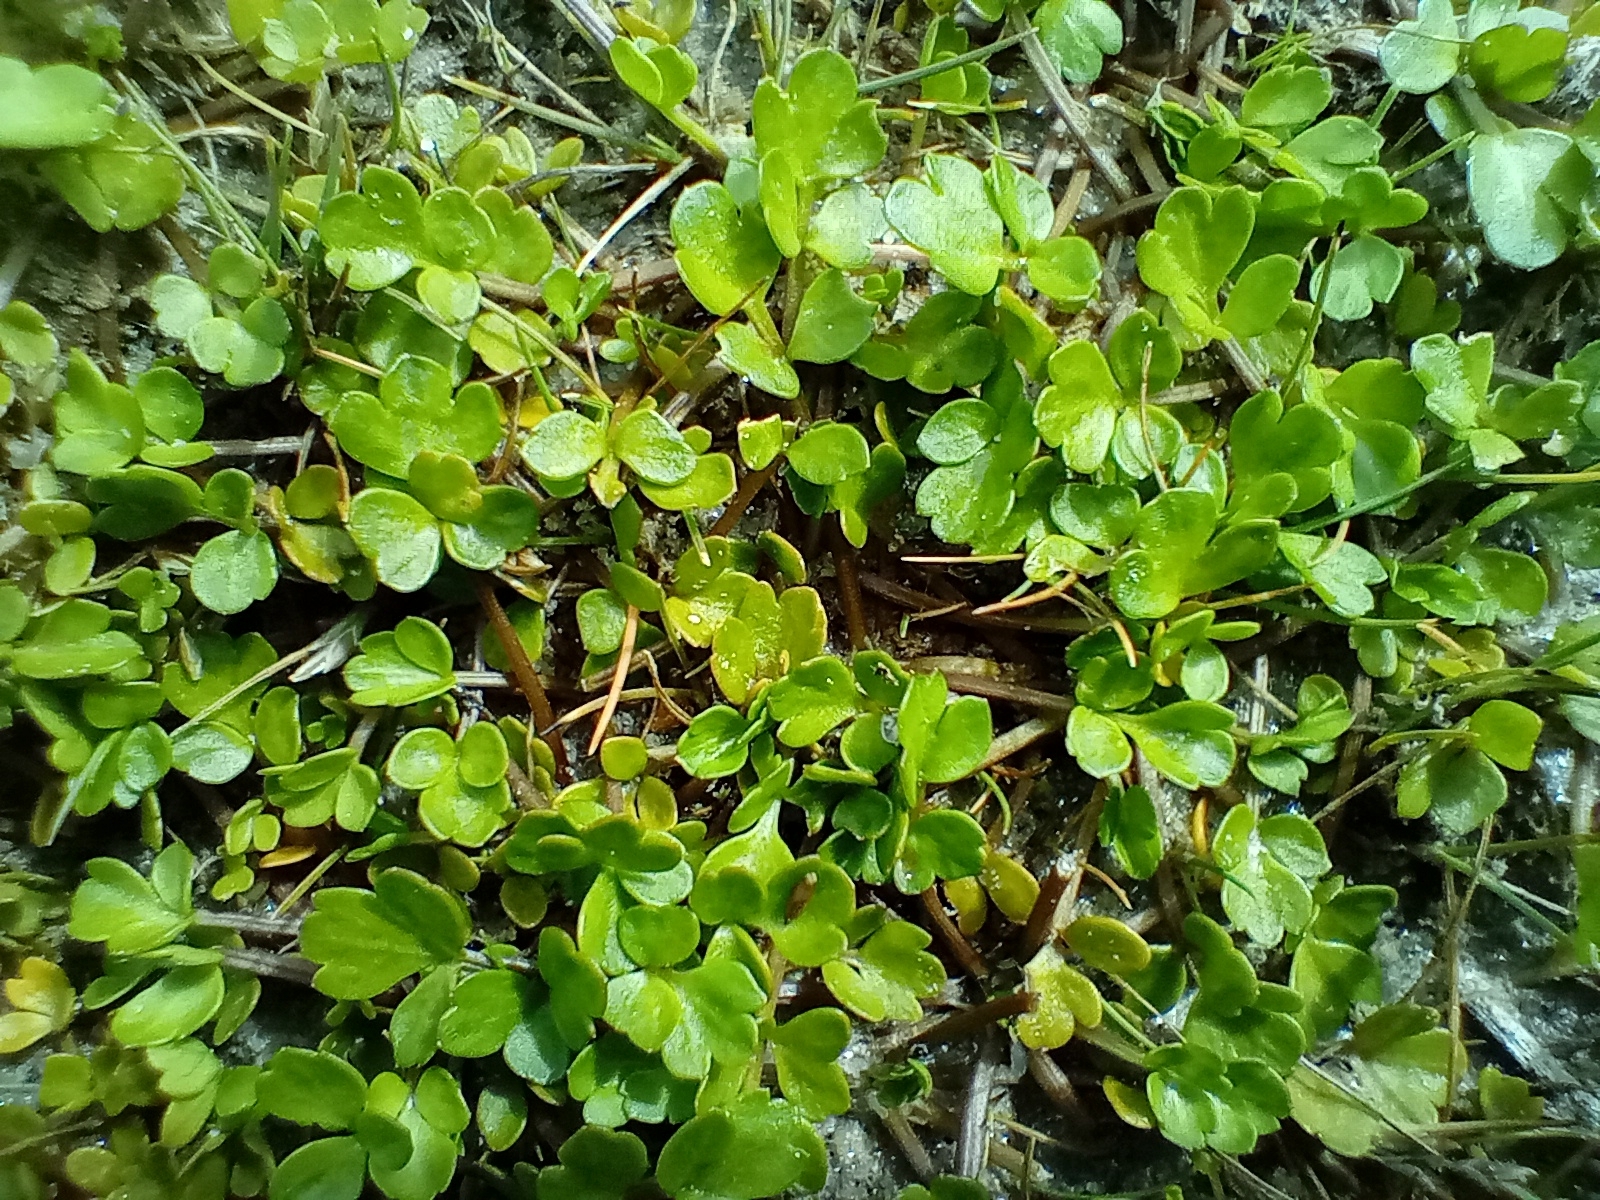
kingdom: Plantae
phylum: Tracheophyta
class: Magnoliopsida
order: Apiales
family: Apiaceae
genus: Apium
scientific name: Apium prostratum
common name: Prostrate marshwort
